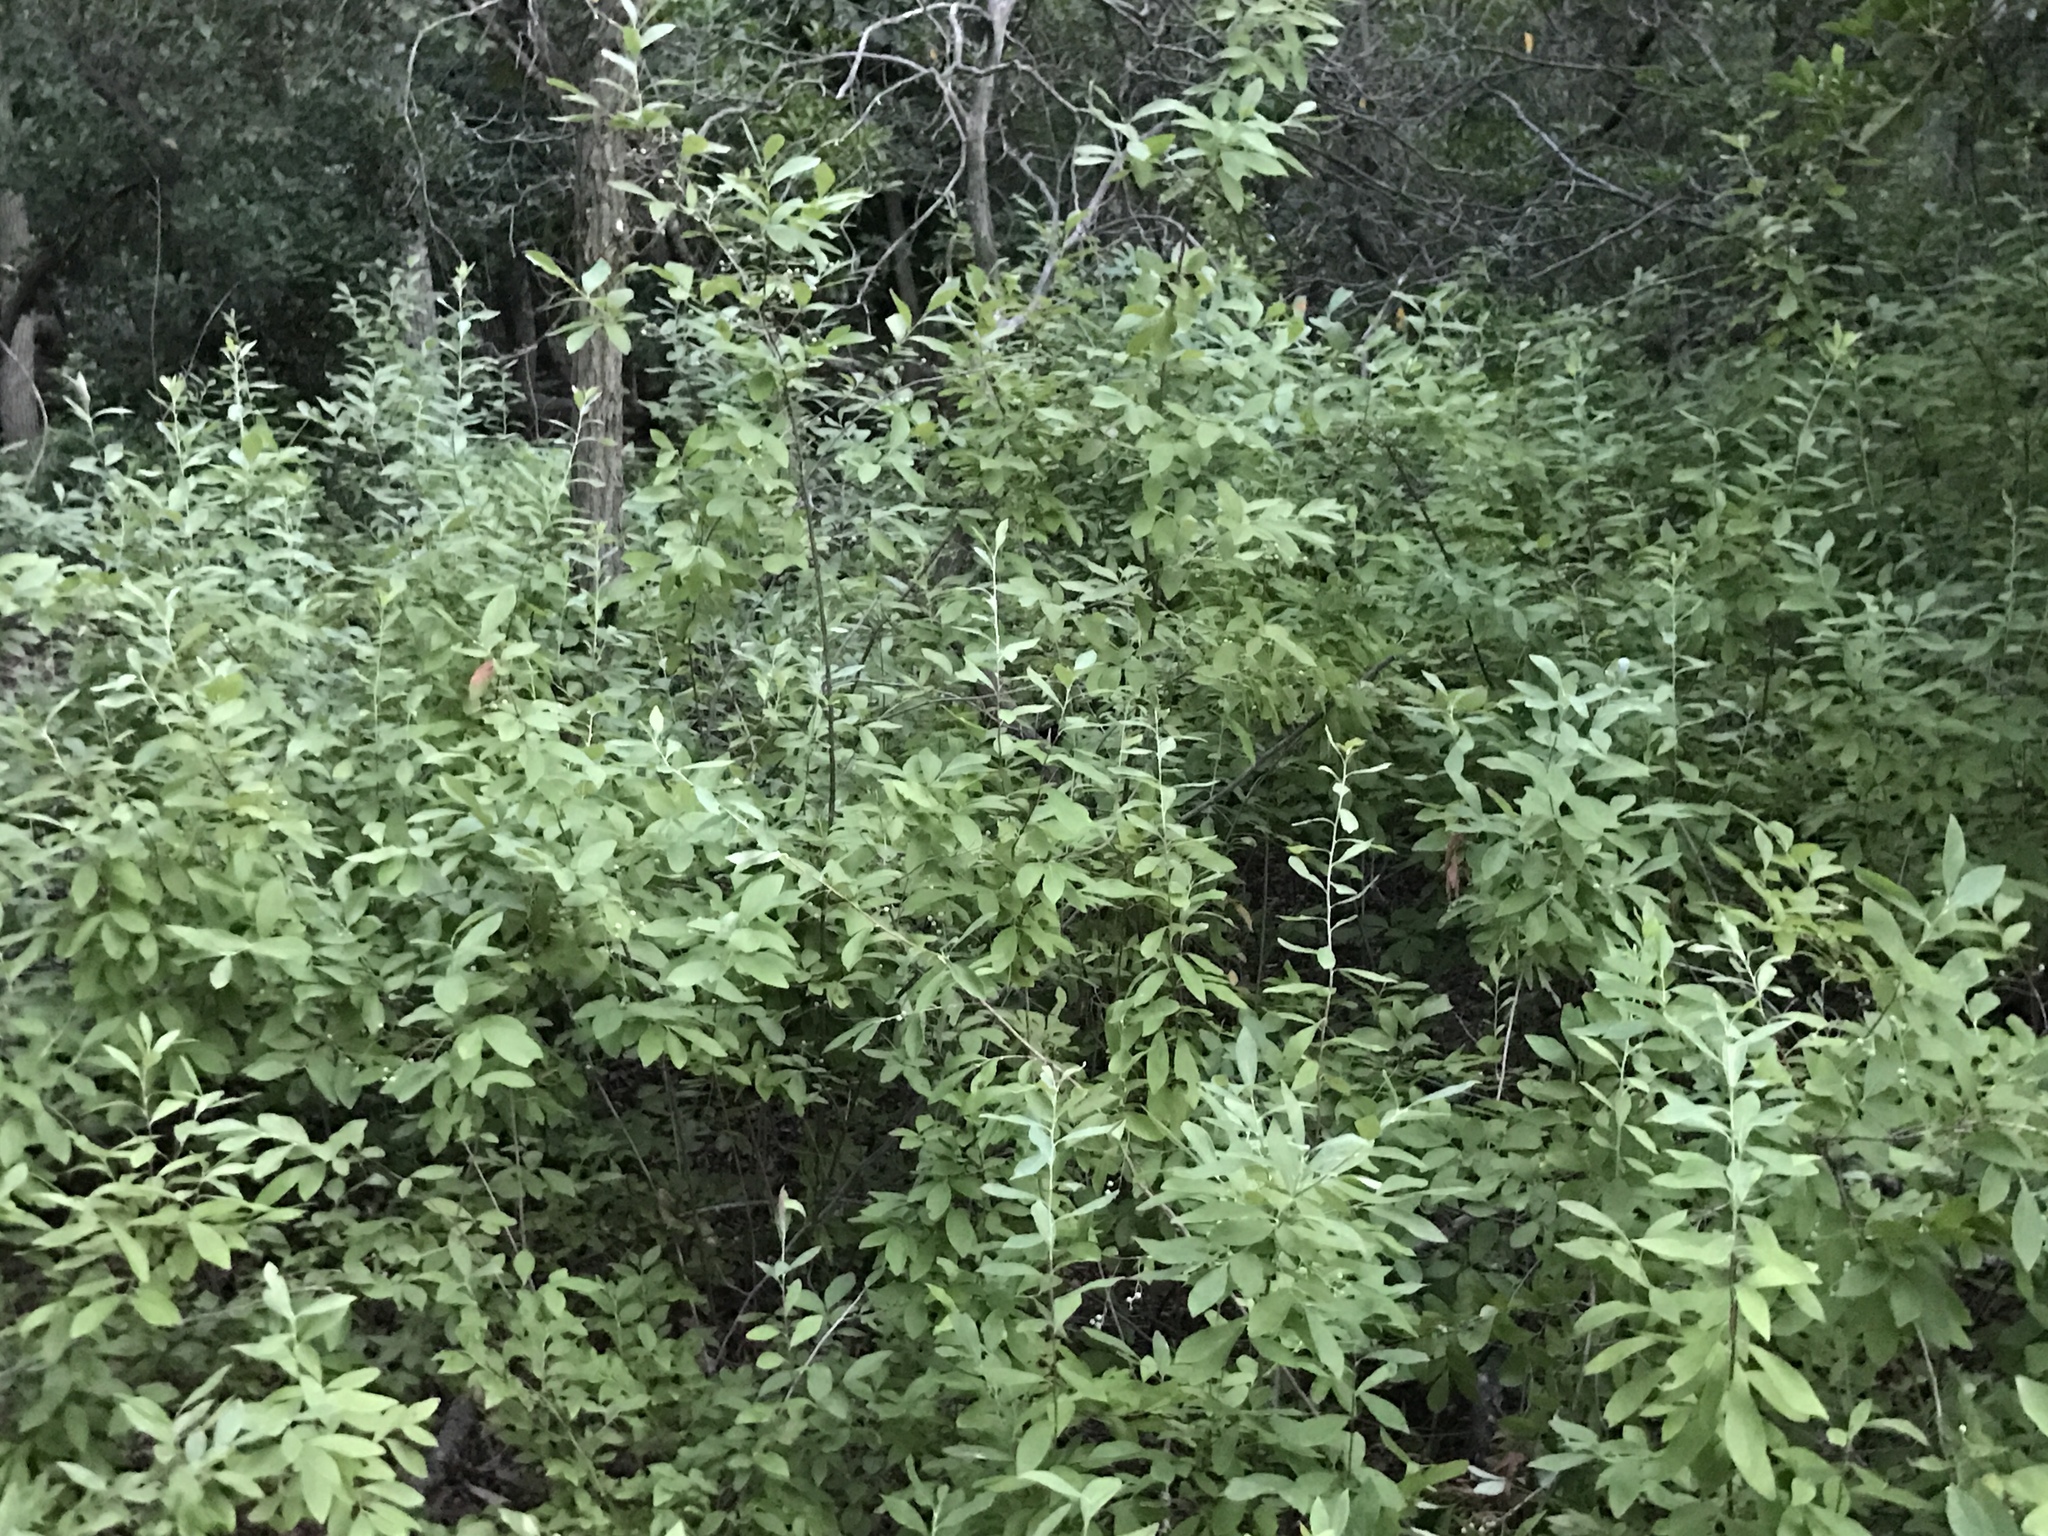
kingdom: Plantae
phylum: Tracheophyta
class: Magnoliopsida
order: Ericales
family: Ericaceae
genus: Gaylussacia
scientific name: Gaylussacia frondosa
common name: Dangleberry
